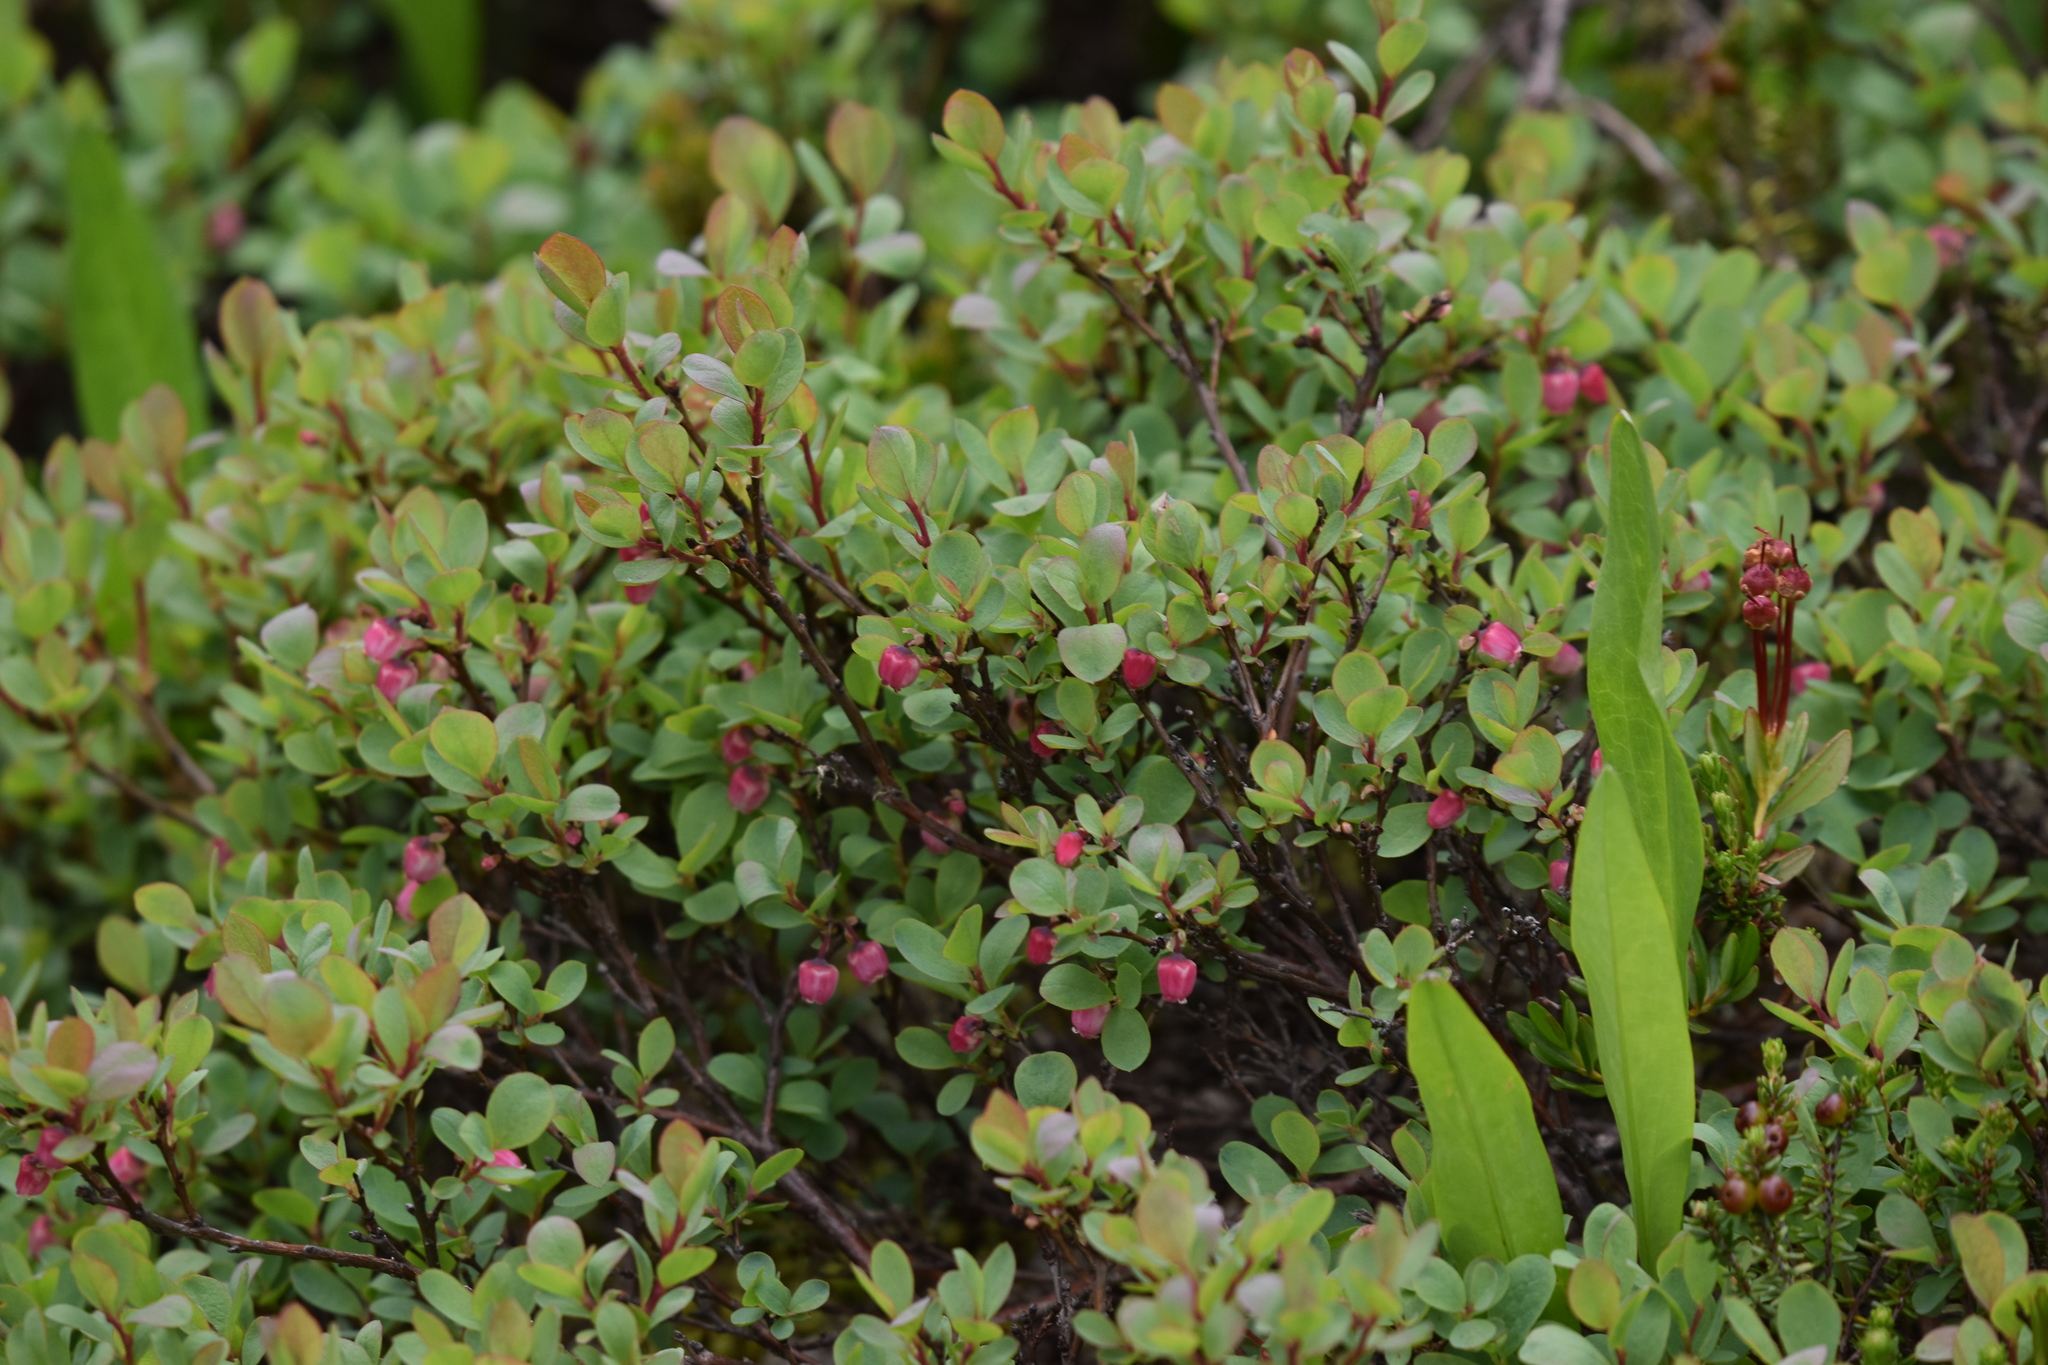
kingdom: Plantae
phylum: Tracheophyta
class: Magnoliopsida
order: Ericales
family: Ericaceae
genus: Vaccinium
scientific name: Vaccinium uliginosum
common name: Bog bilberry
